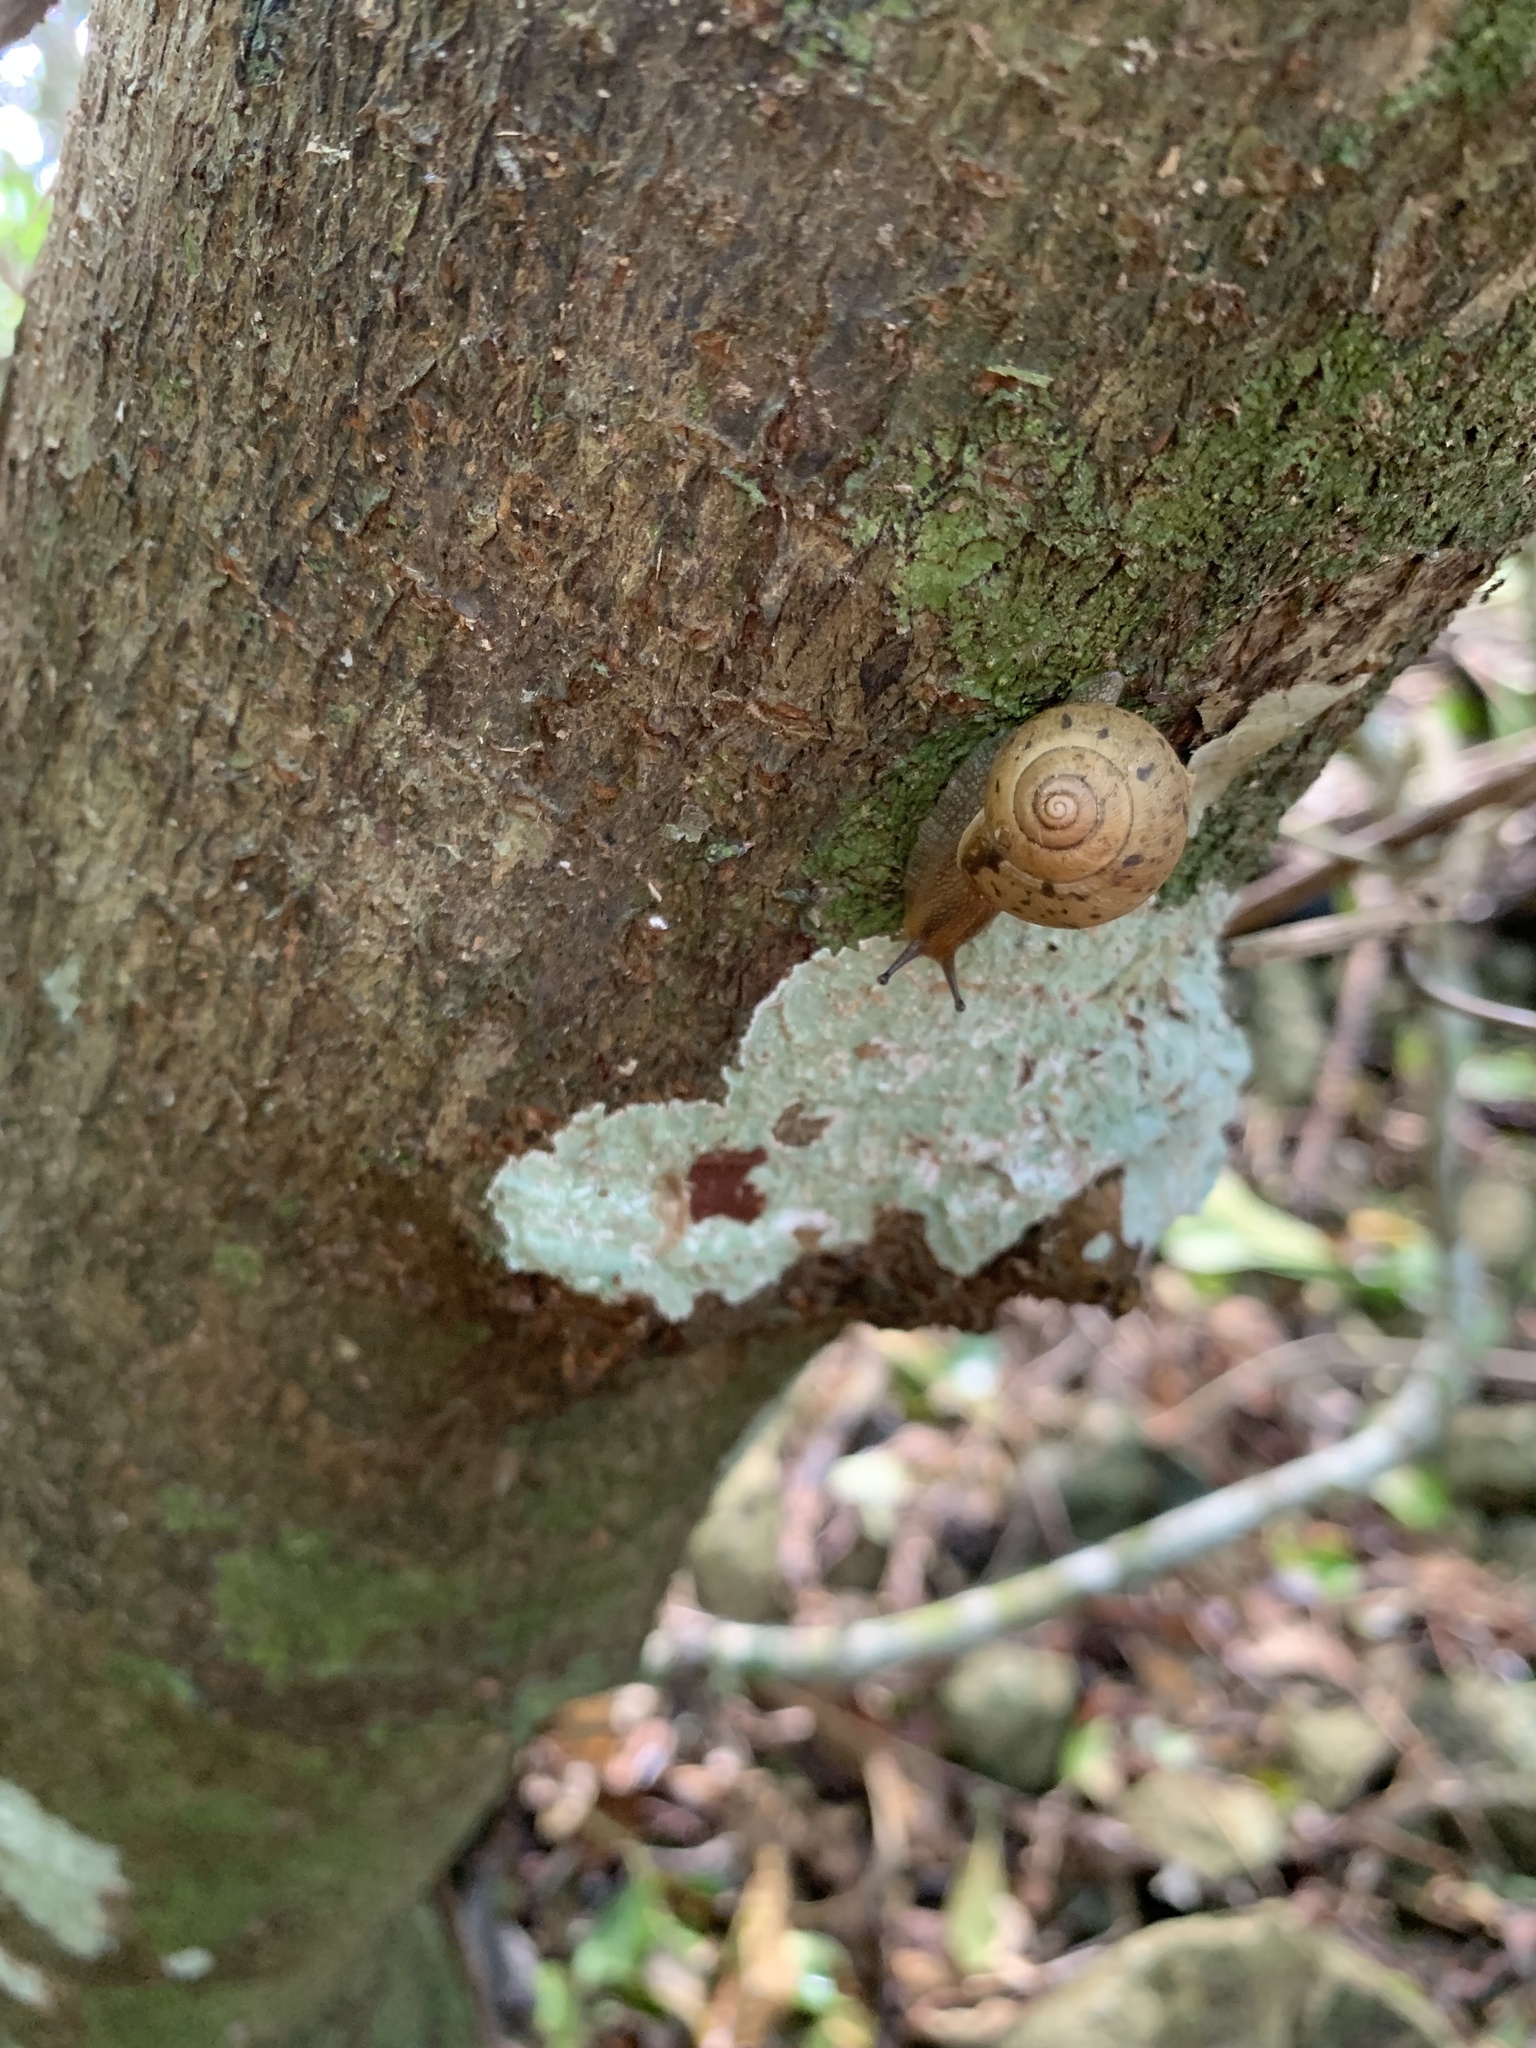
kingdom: Animalia
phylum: Mollusca
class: Gastropoda
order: Stylommatophora
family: Camaenidae
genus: Acusta
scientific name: Acusta sieboldtiana
